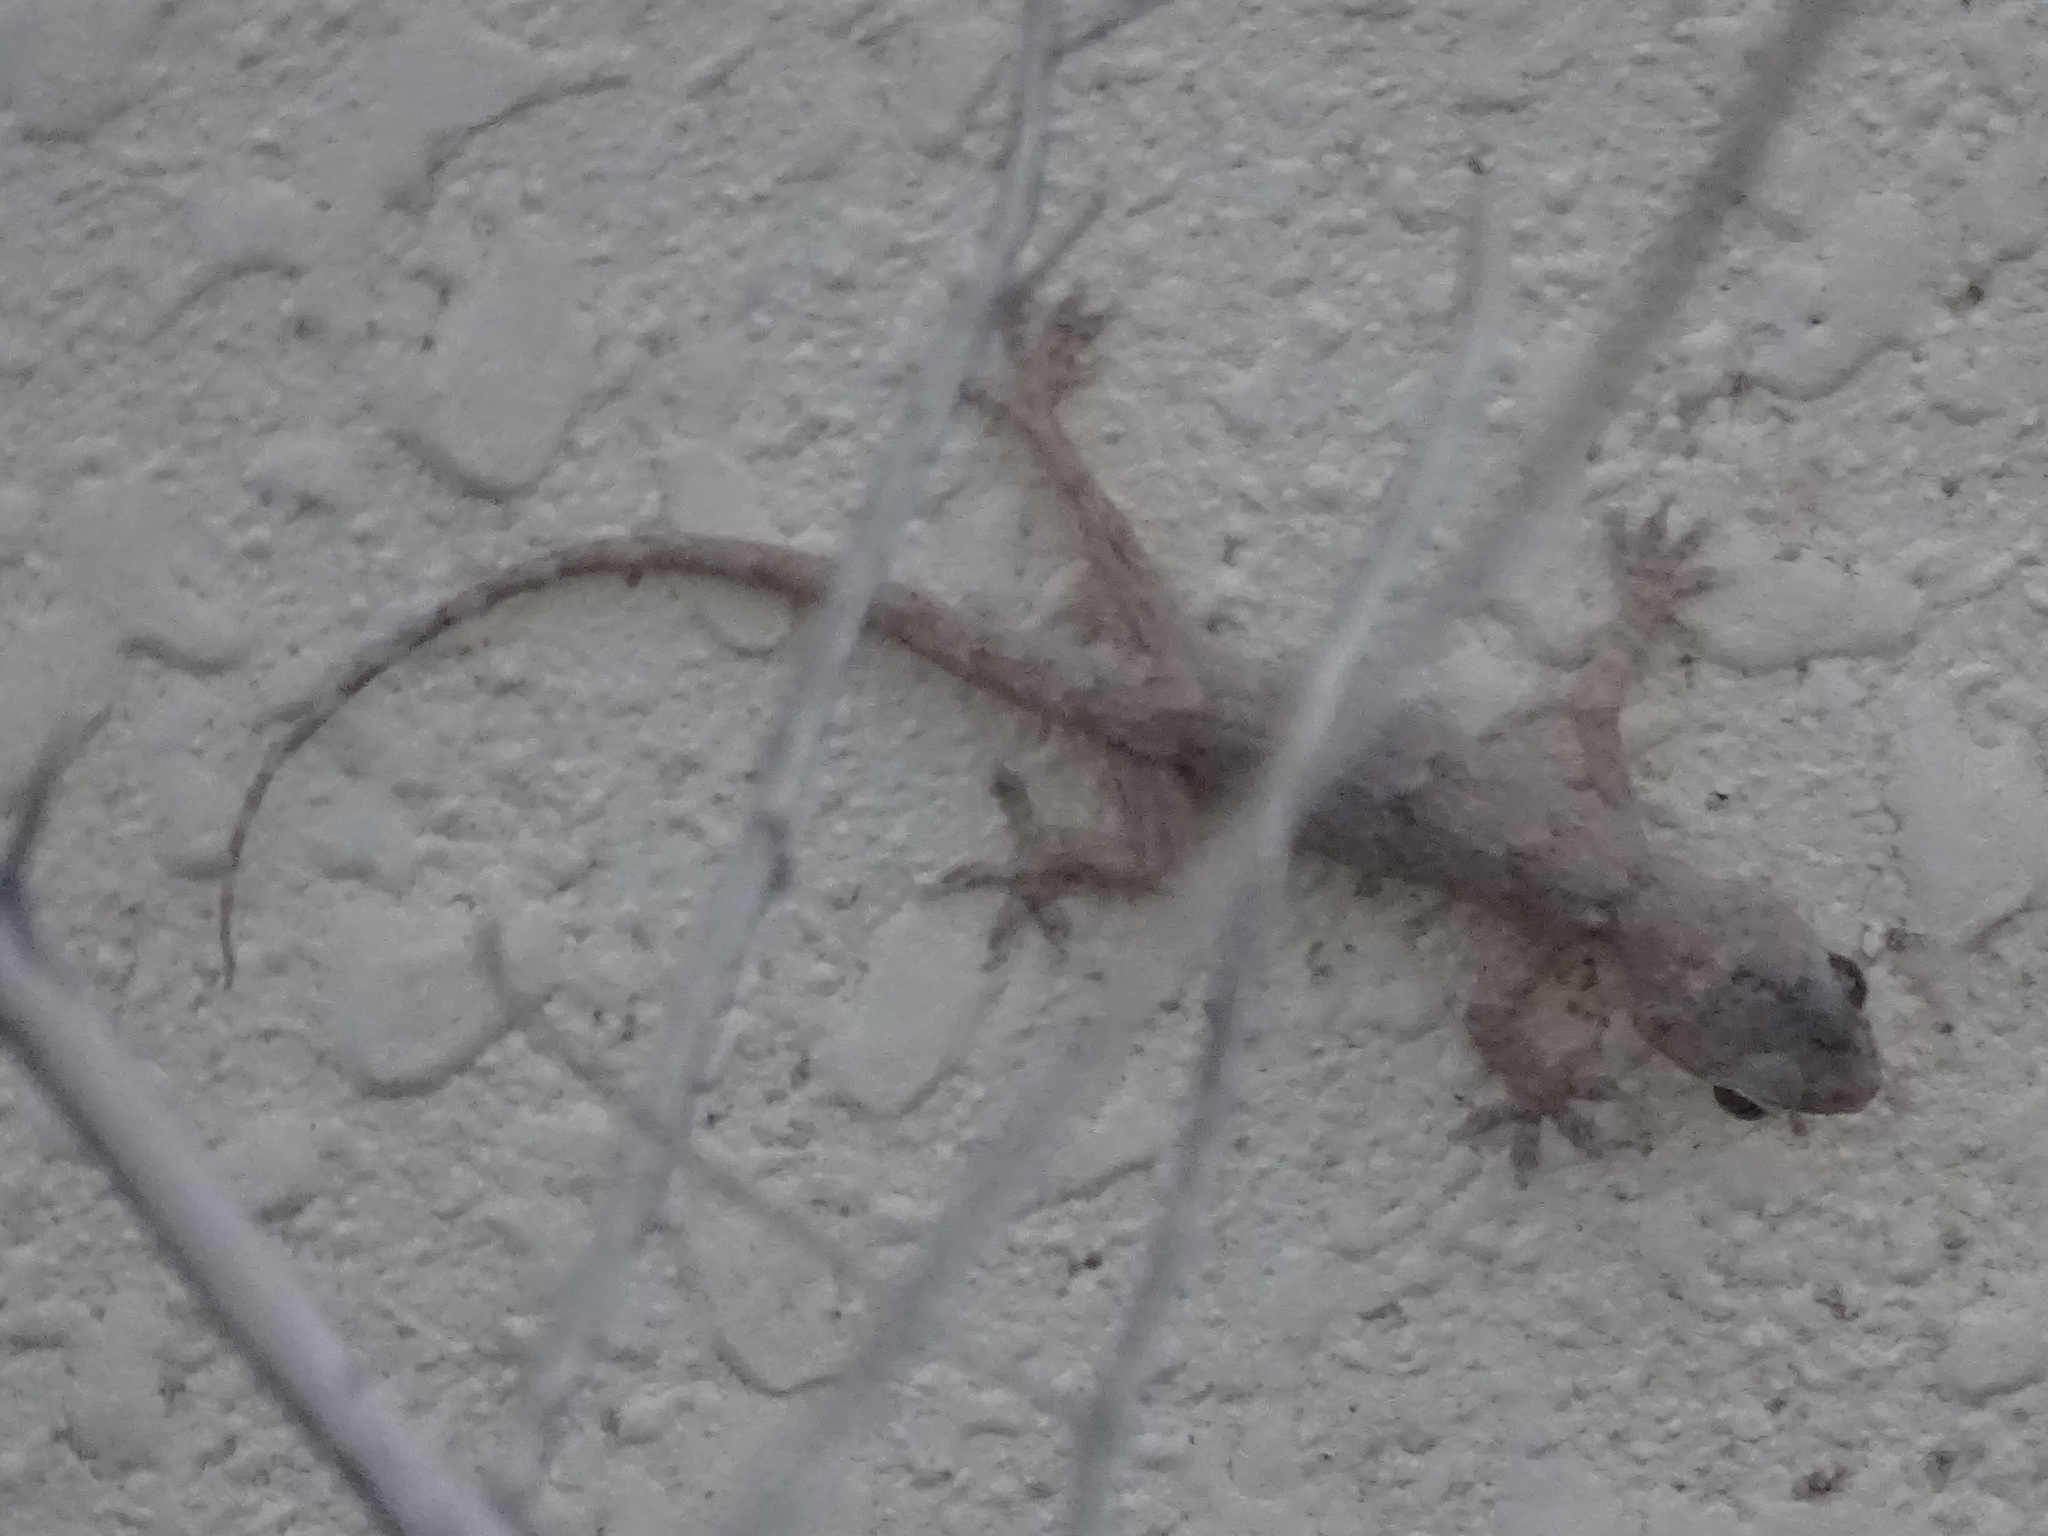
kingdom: Animalia
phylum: Chordata
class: Squamata
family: Gekkonidae
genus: Hemidactylus
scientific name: Hemidactylus flaviviridis
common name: Northern house gecko
